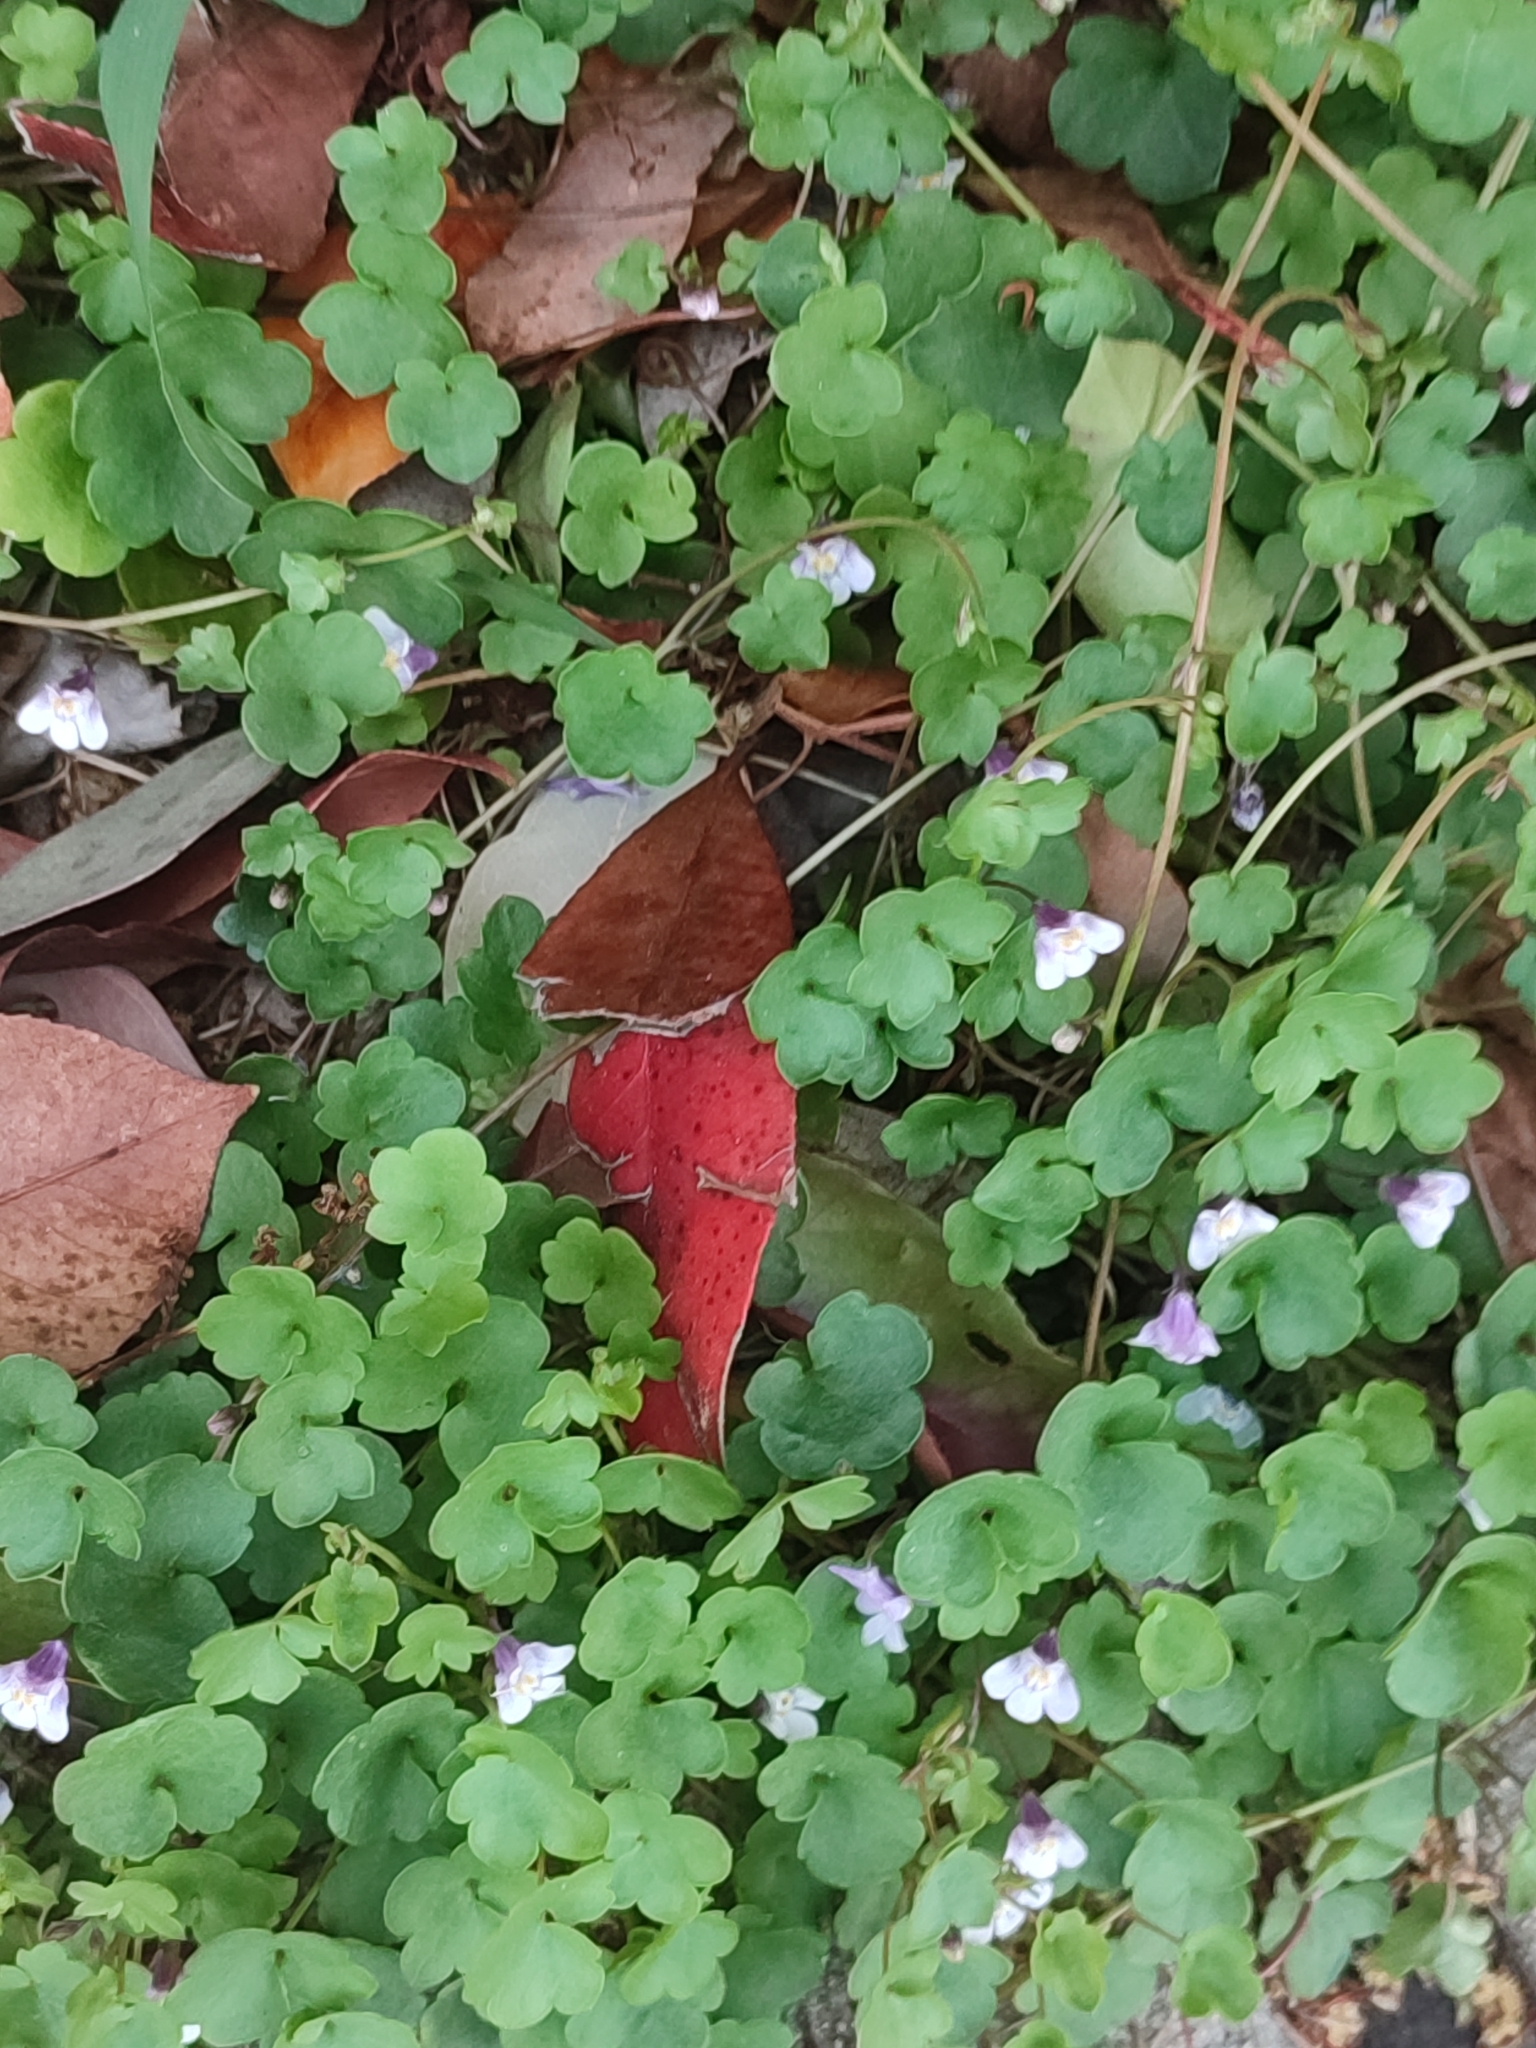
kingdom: Plantae
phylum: Tracheophyta
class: Magnoliopsida
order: Lamiales
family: Plantaginaceae
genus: Cymbalaria
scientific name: Cymbalaria muralis
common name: Ivy-leaved toadflax
